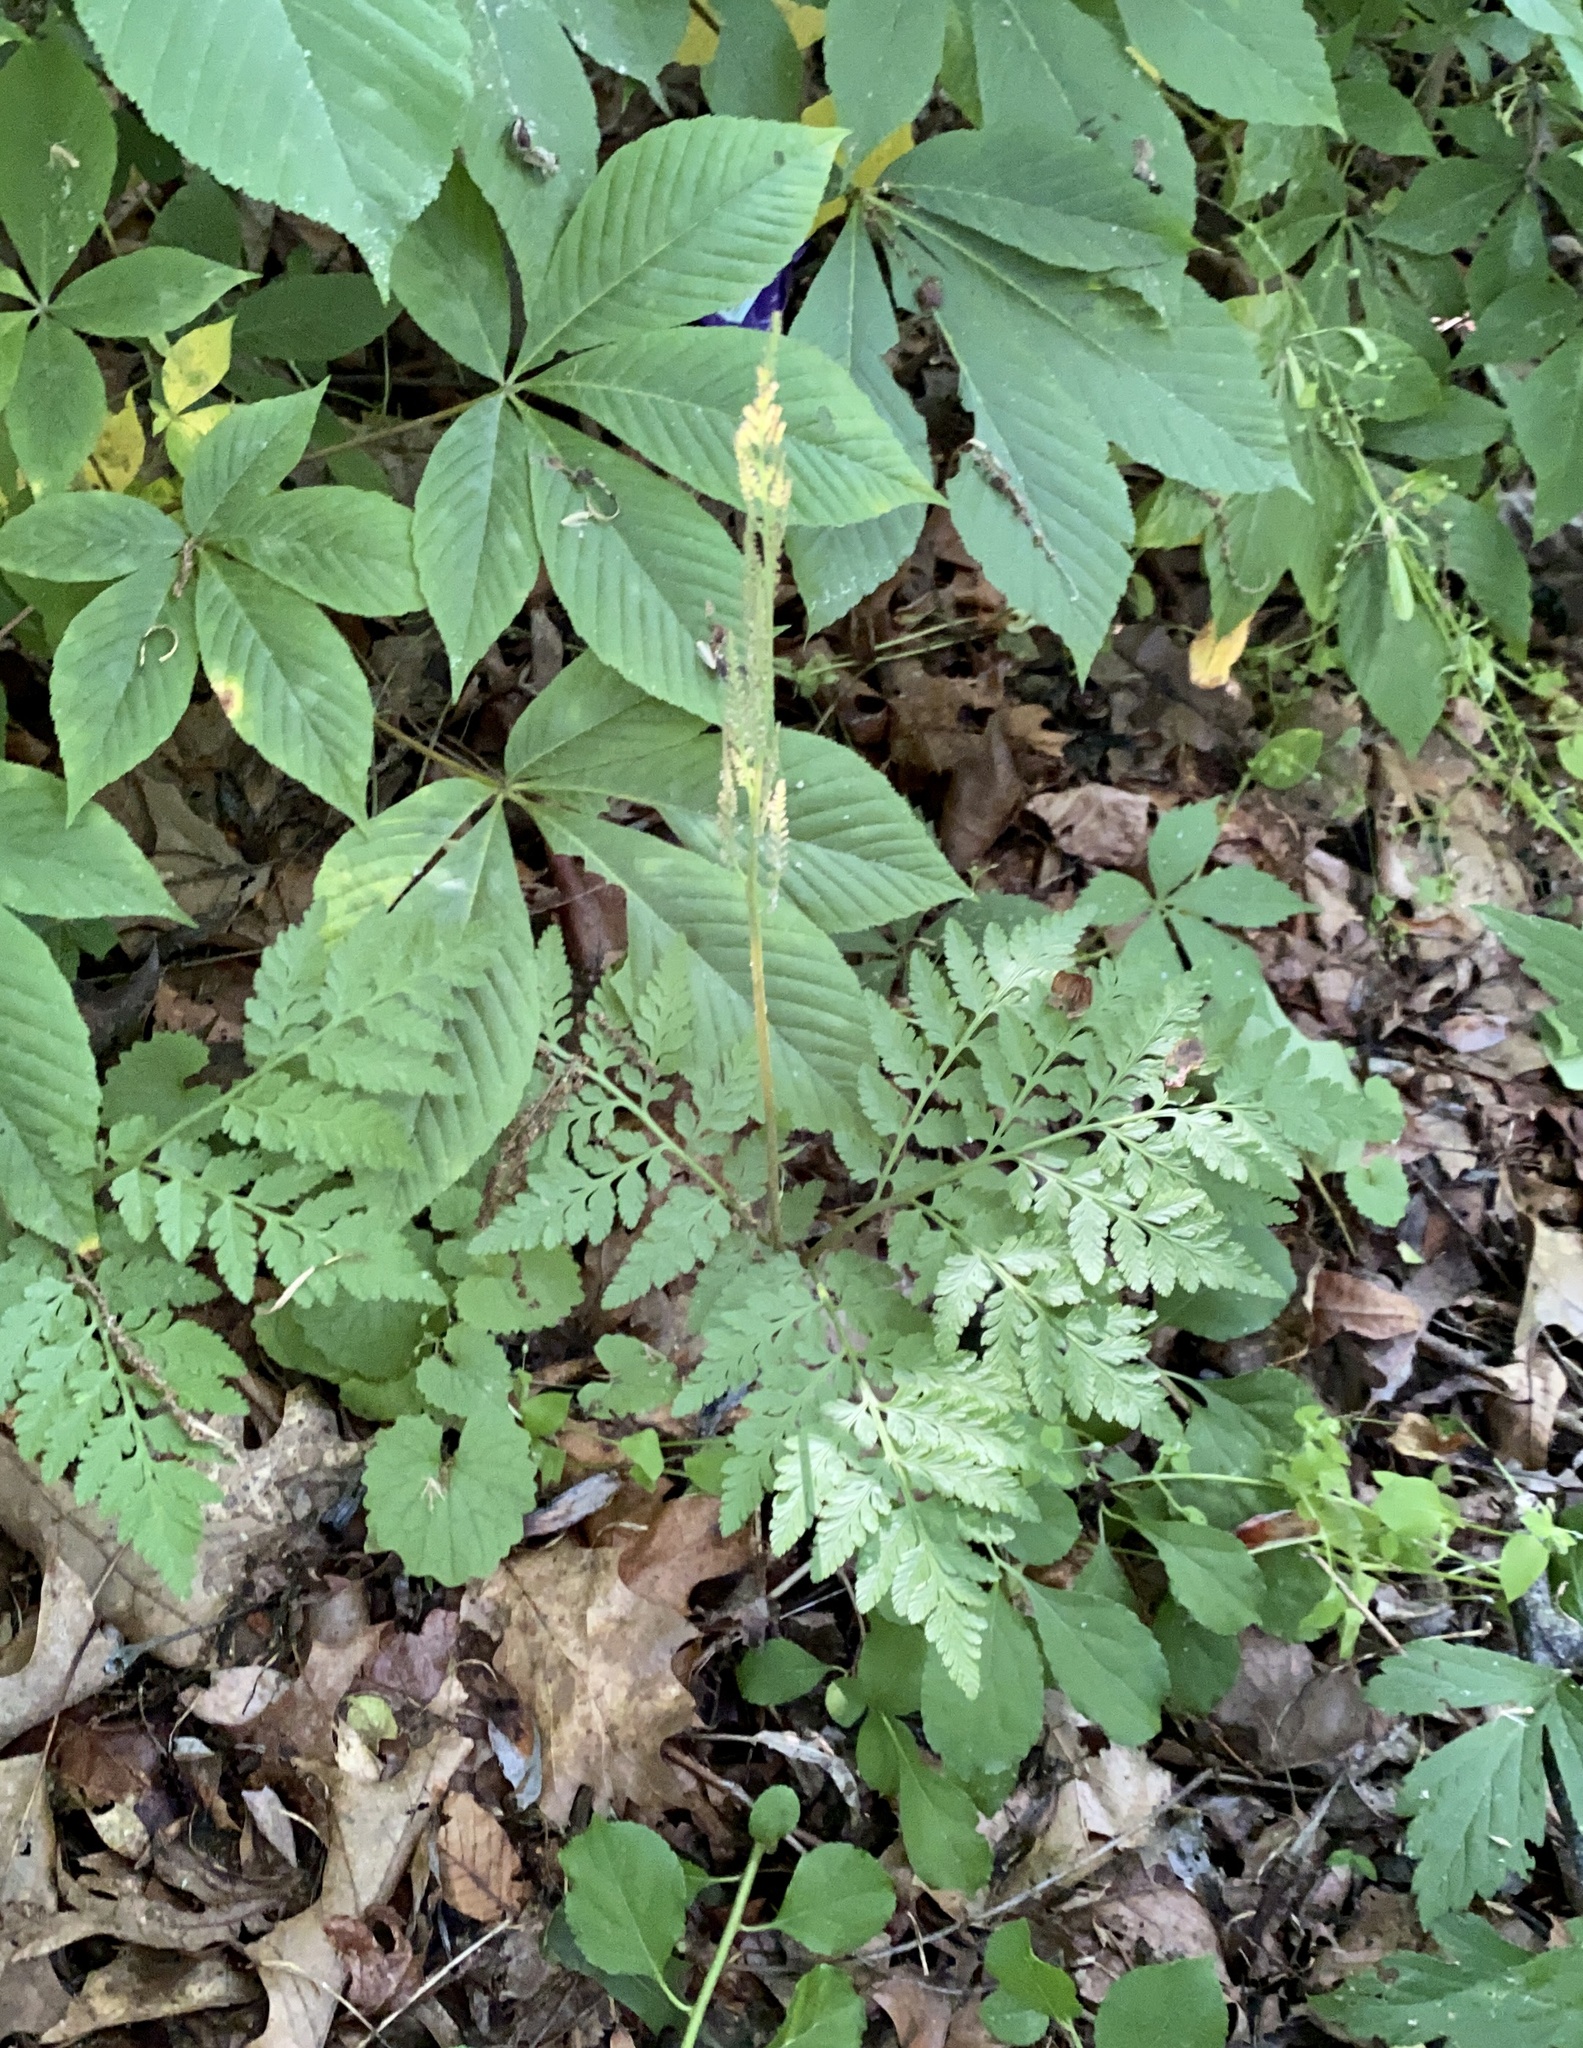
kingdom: Plantae
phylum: Tracheophyta
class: Polypodiopsida
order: Ophioglossales
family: Ophioglossaceae
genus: Botrypus
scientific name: Botrypus virginianus
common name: Common grapefern
